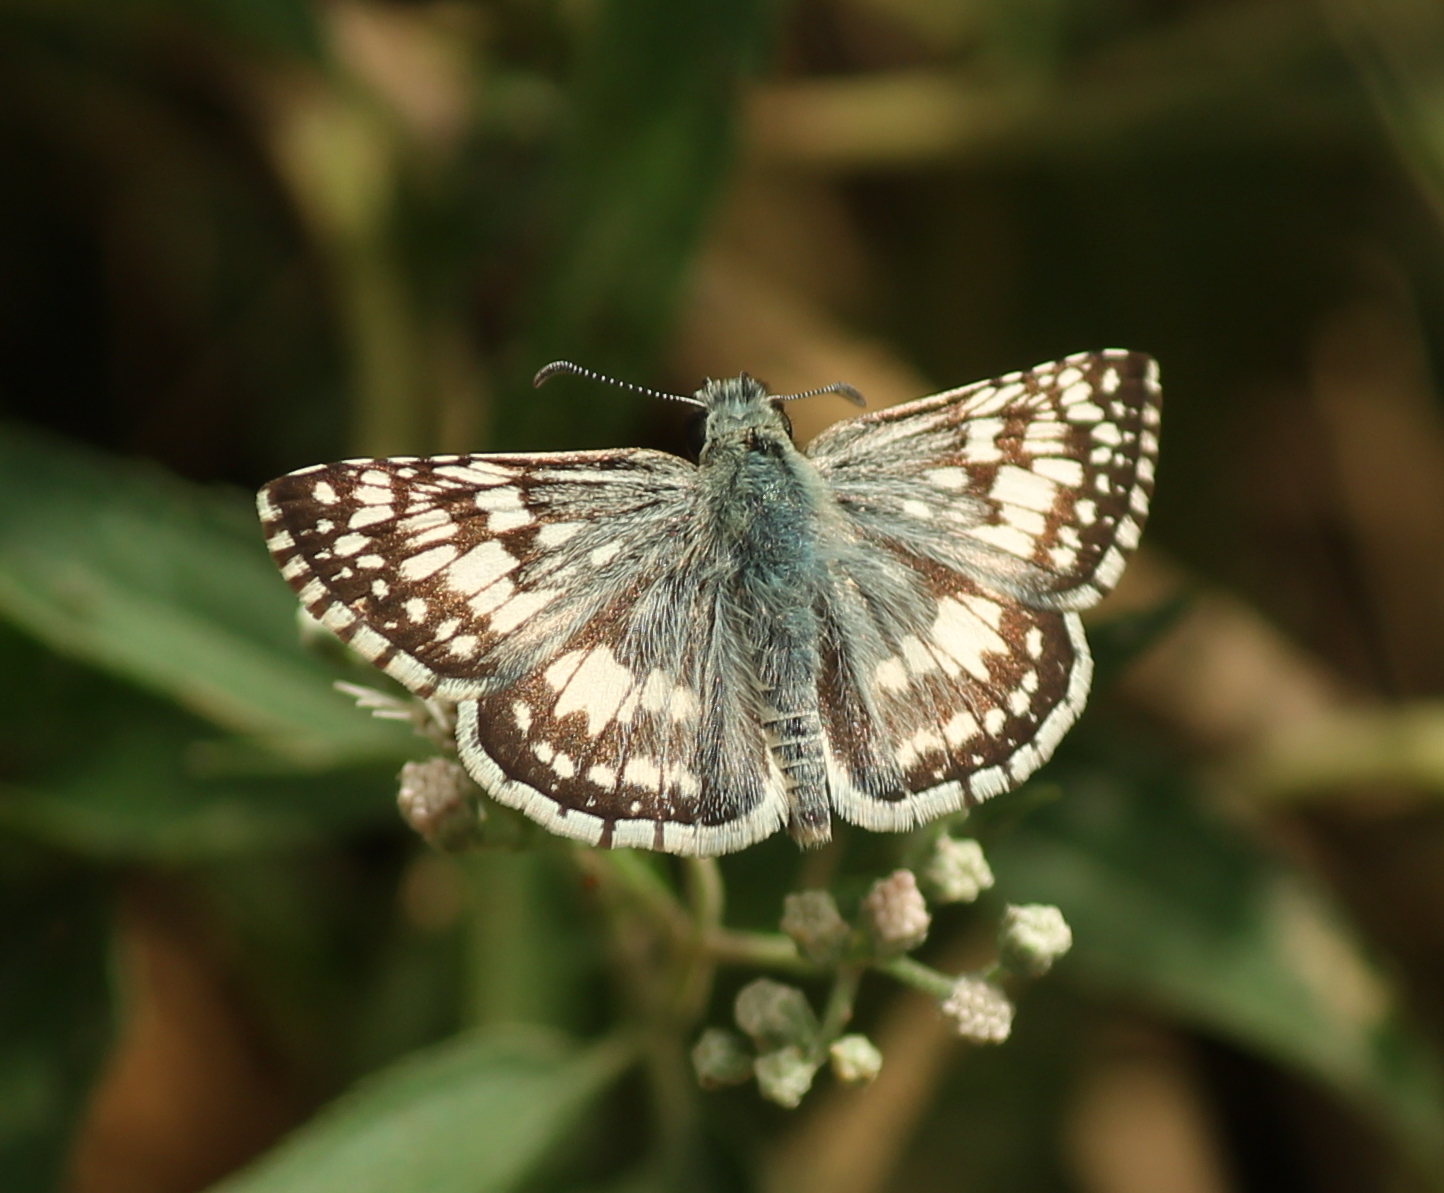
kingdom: Animalia
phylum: Arthropoda
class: Insecta
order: Lepidoptera
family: Hesperiidae
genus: Burnsius
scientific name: Burnsius communis
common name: Common checkered-skipper
